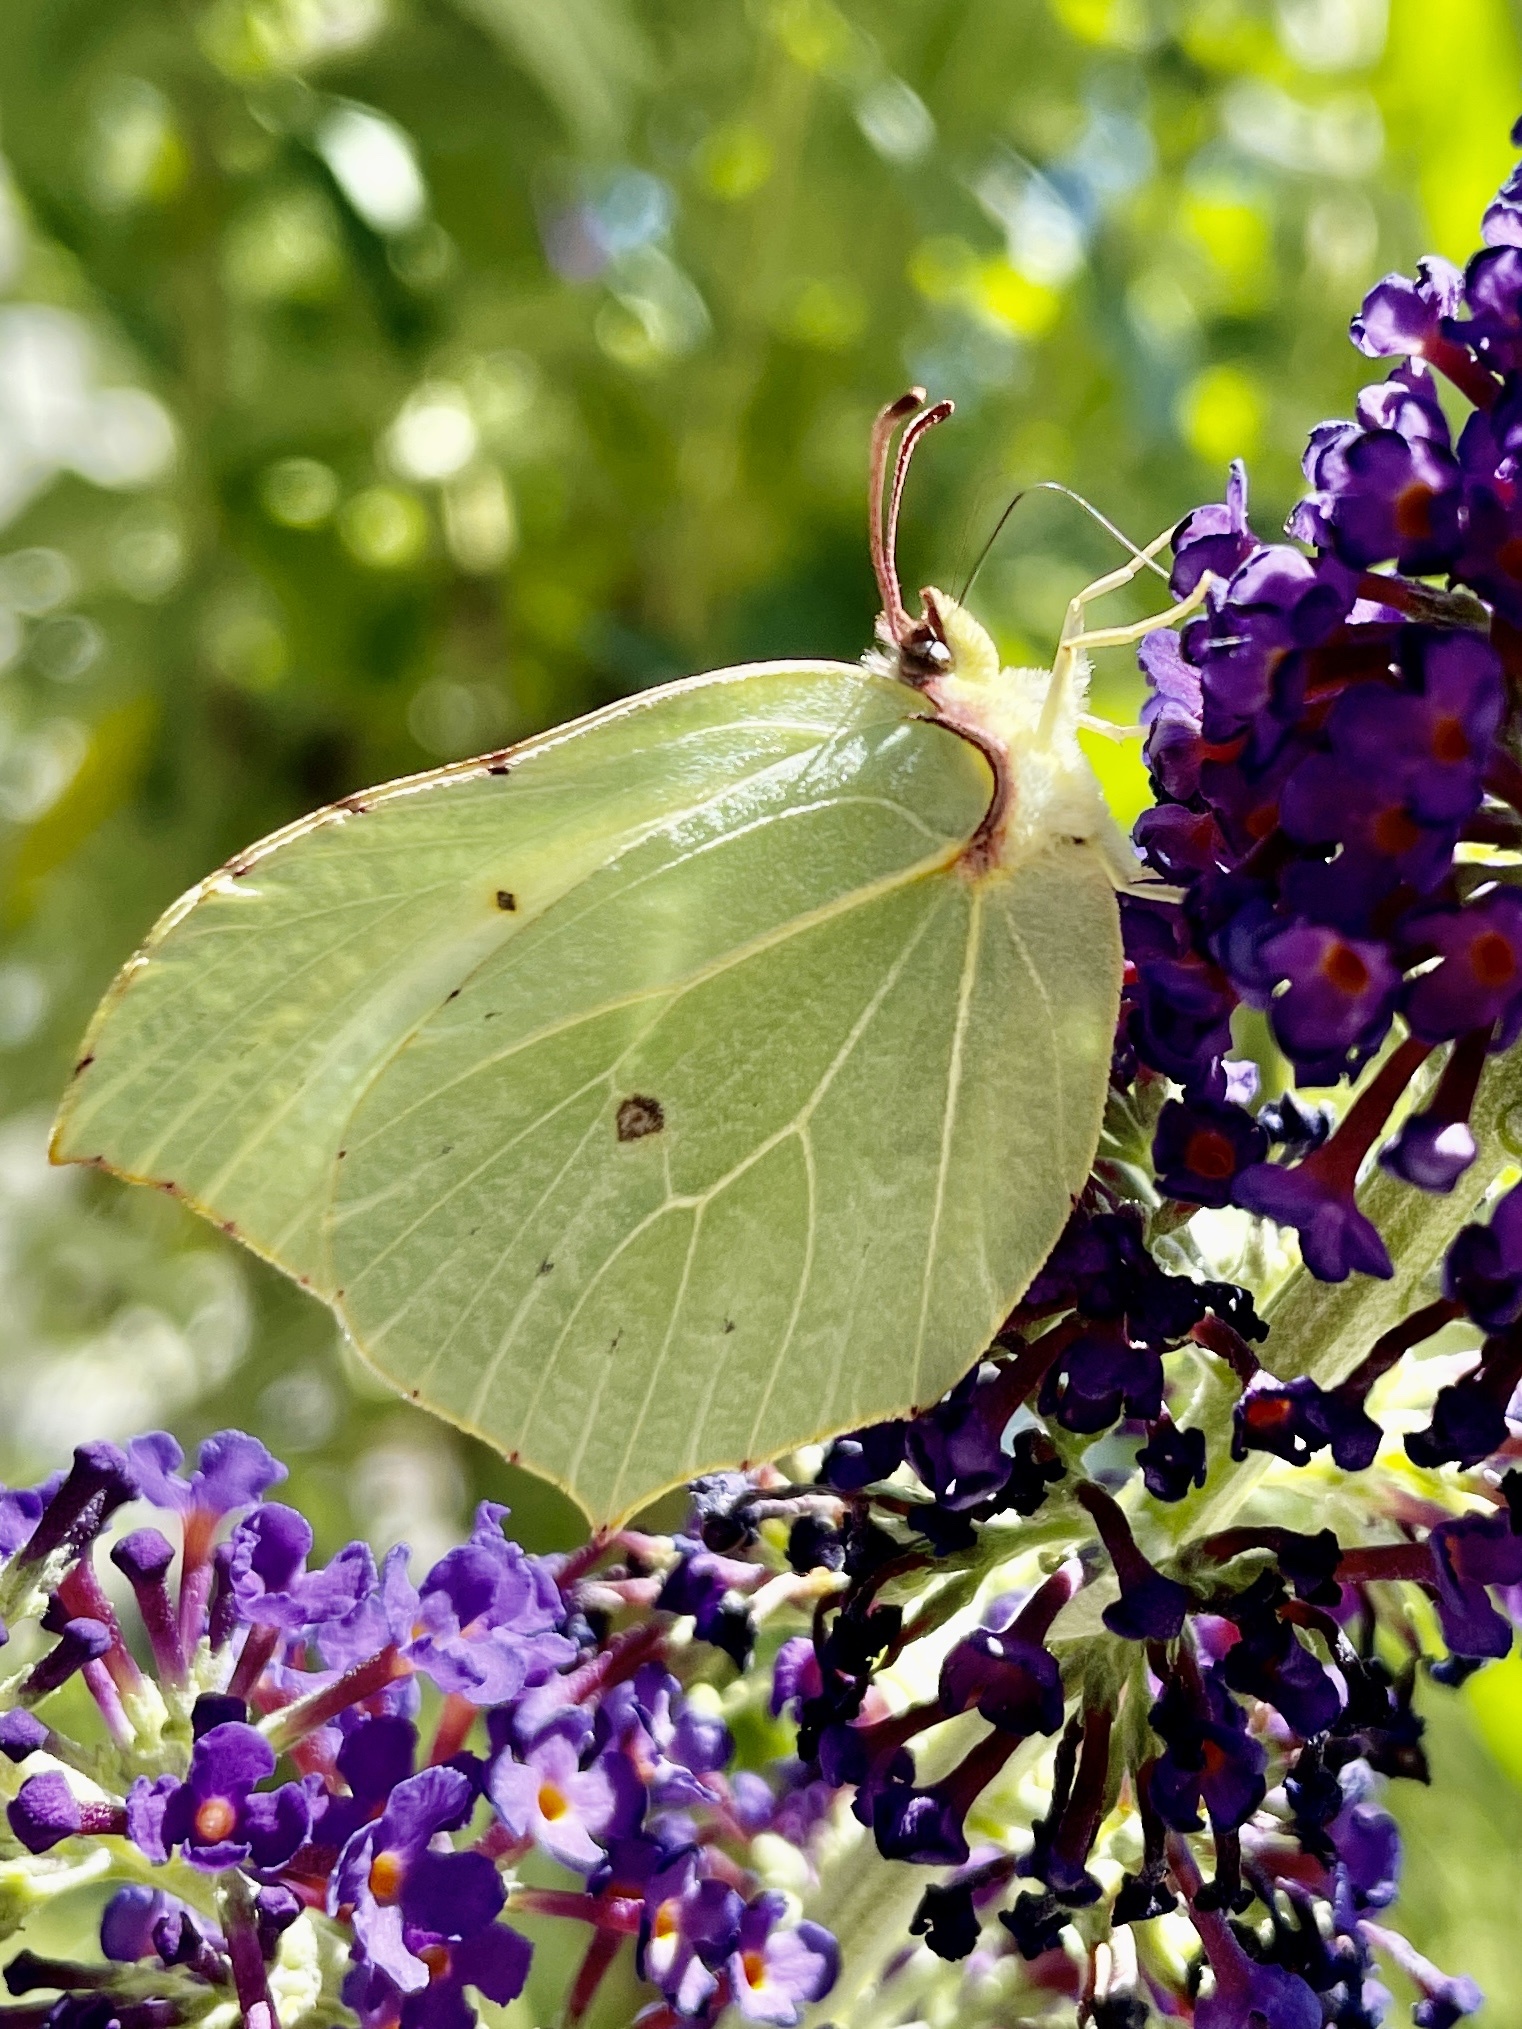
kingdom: Animalia
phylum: Arthropoda
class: Insecta
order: Lepidoptera
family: Pieridae
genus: Gonepteryx
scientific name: Gonepteryx rhamni
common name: Brimstone
